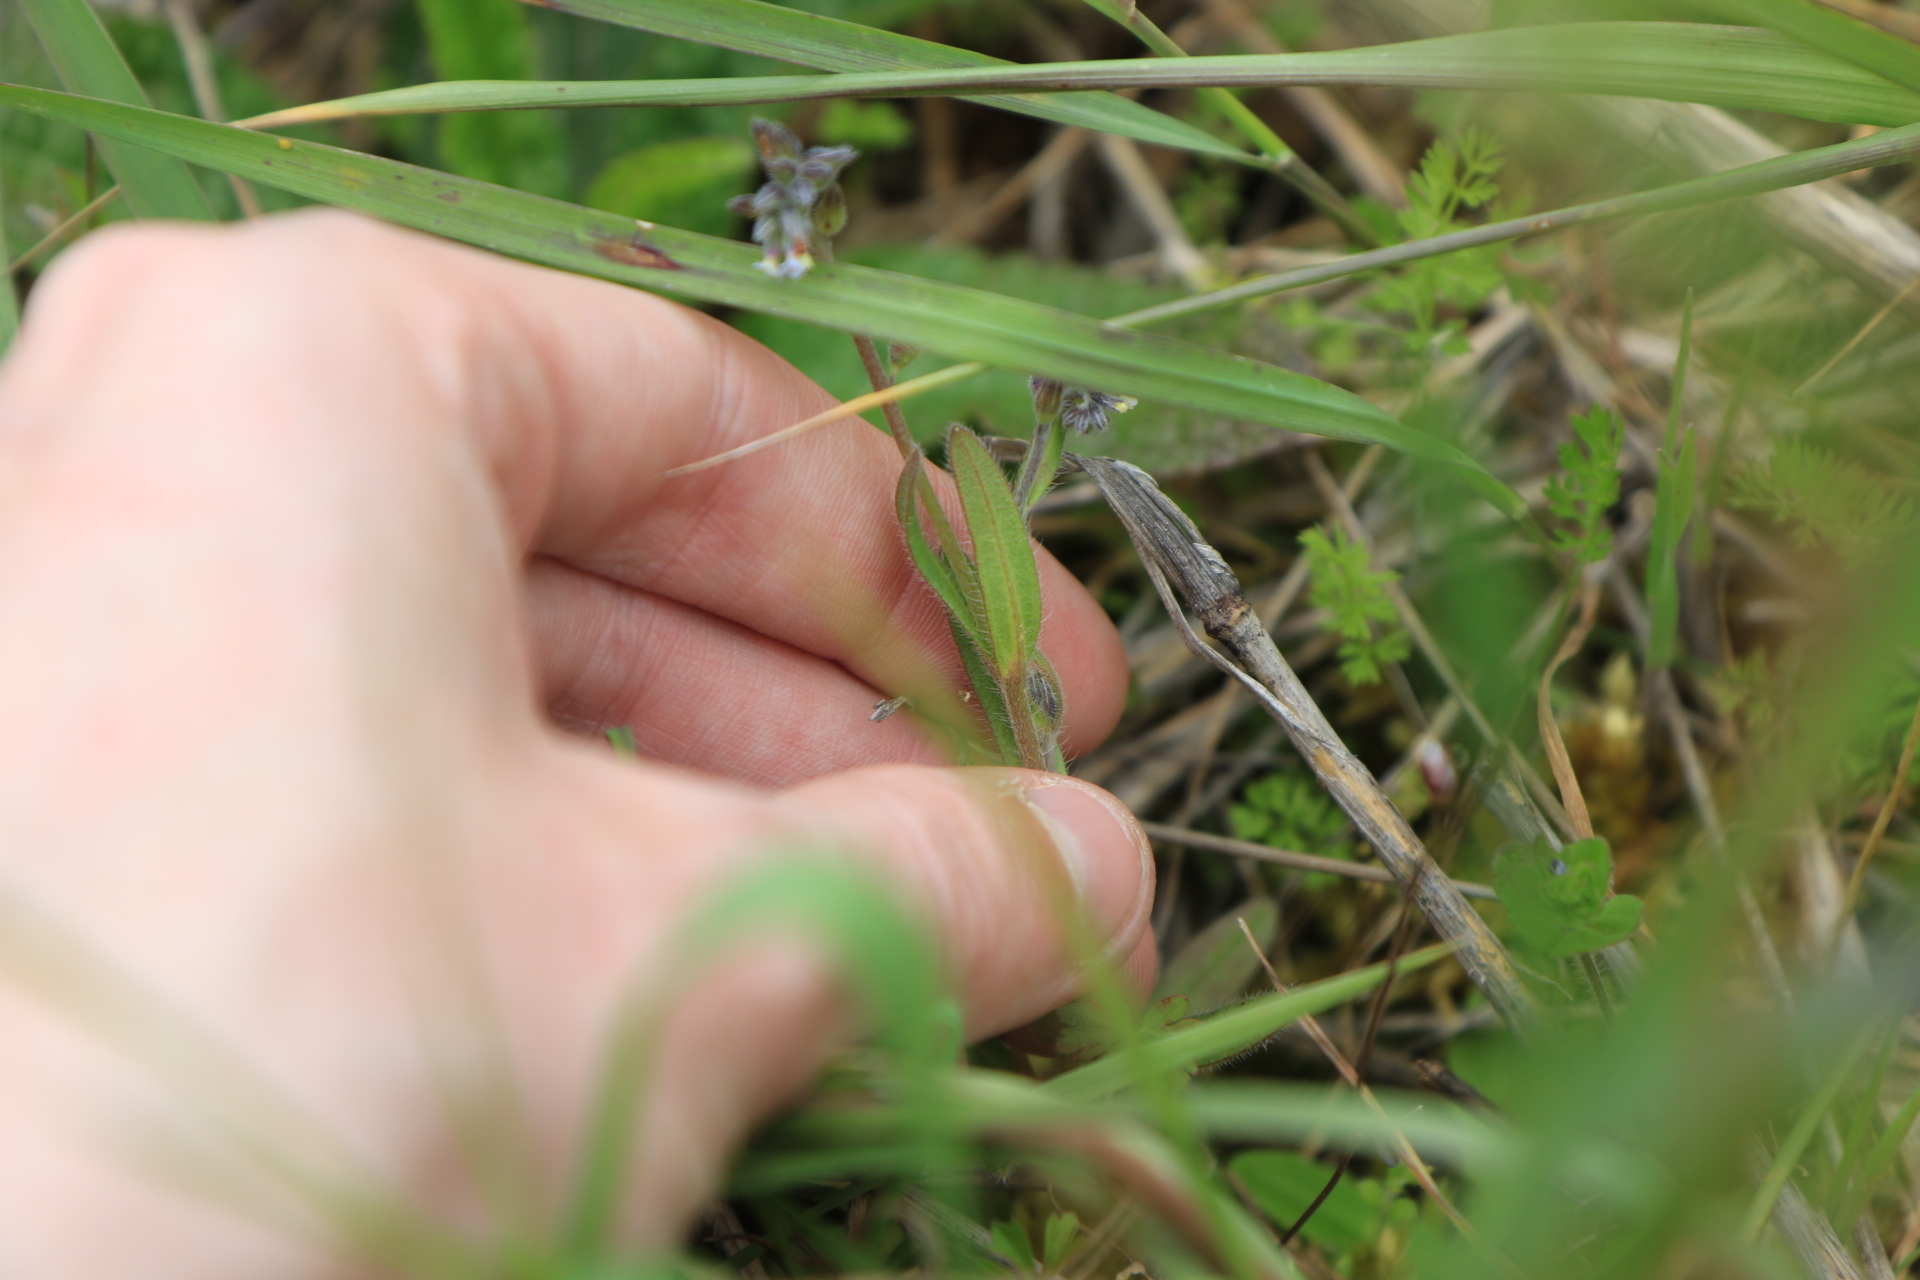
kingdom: Plantae
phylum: Tracheophyta
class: Magnoliopsida
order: Boraginales
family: Boraginaceae
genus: Myosotis
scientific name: Myosotis discolor
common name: Changing forget-me-not
